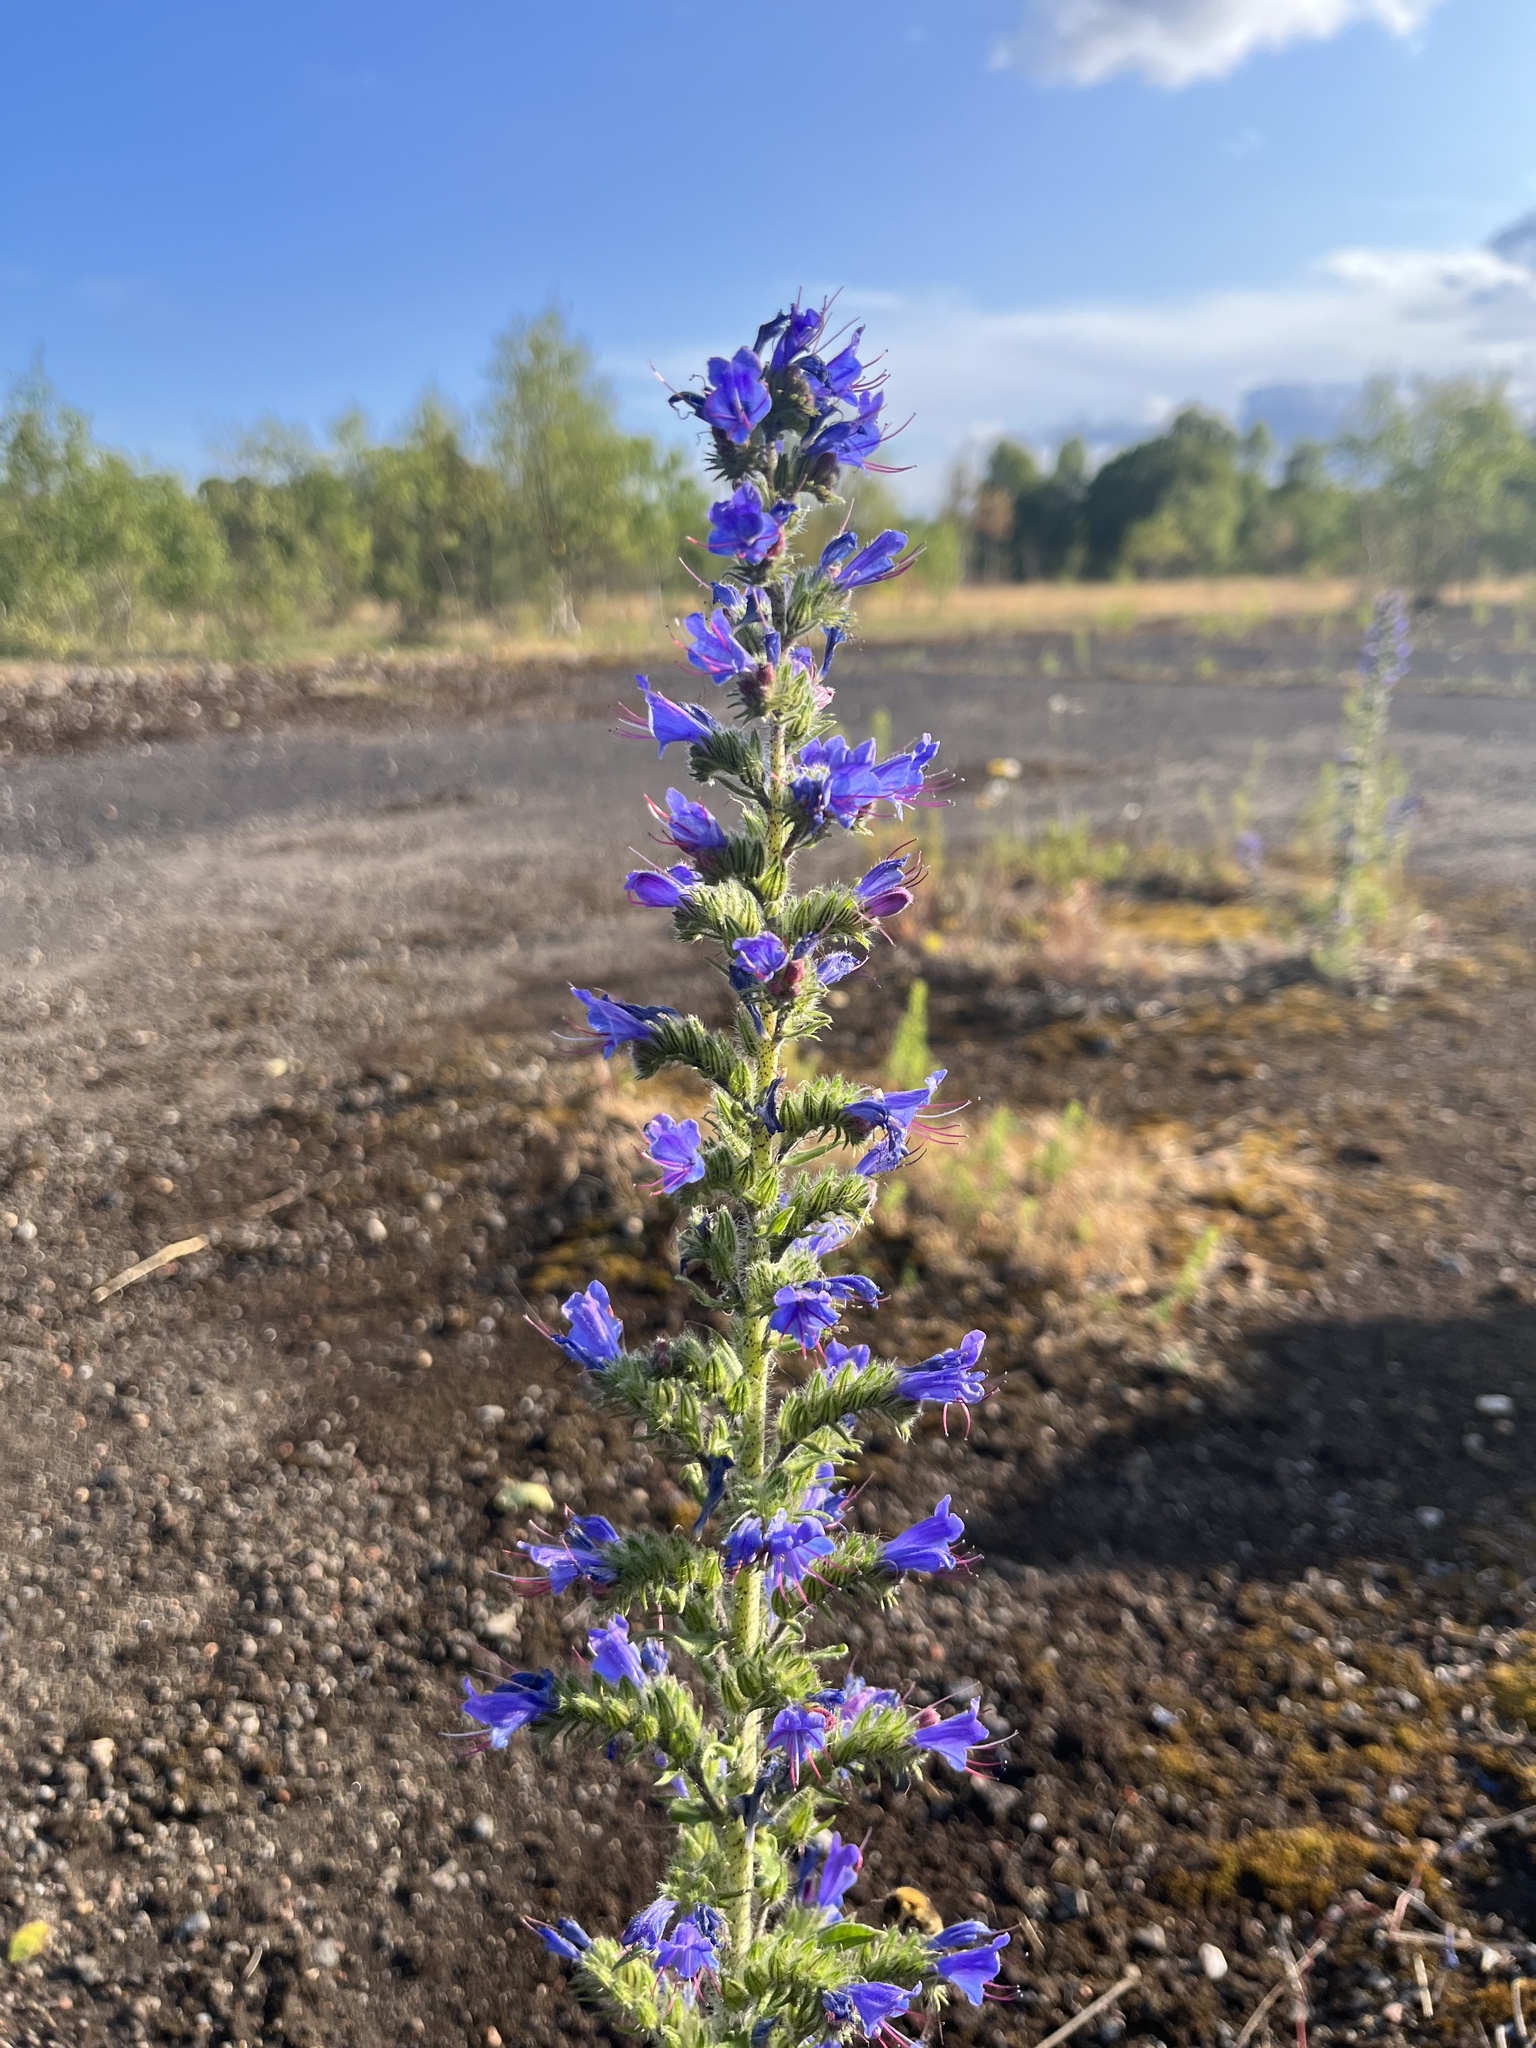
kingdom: Plantae
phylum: Tracheophyta
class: Magnoliopsida
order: Boraginales
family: Boraginaceae
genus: Echium
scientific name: Echium vulgare
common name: Common viper's bugloss
